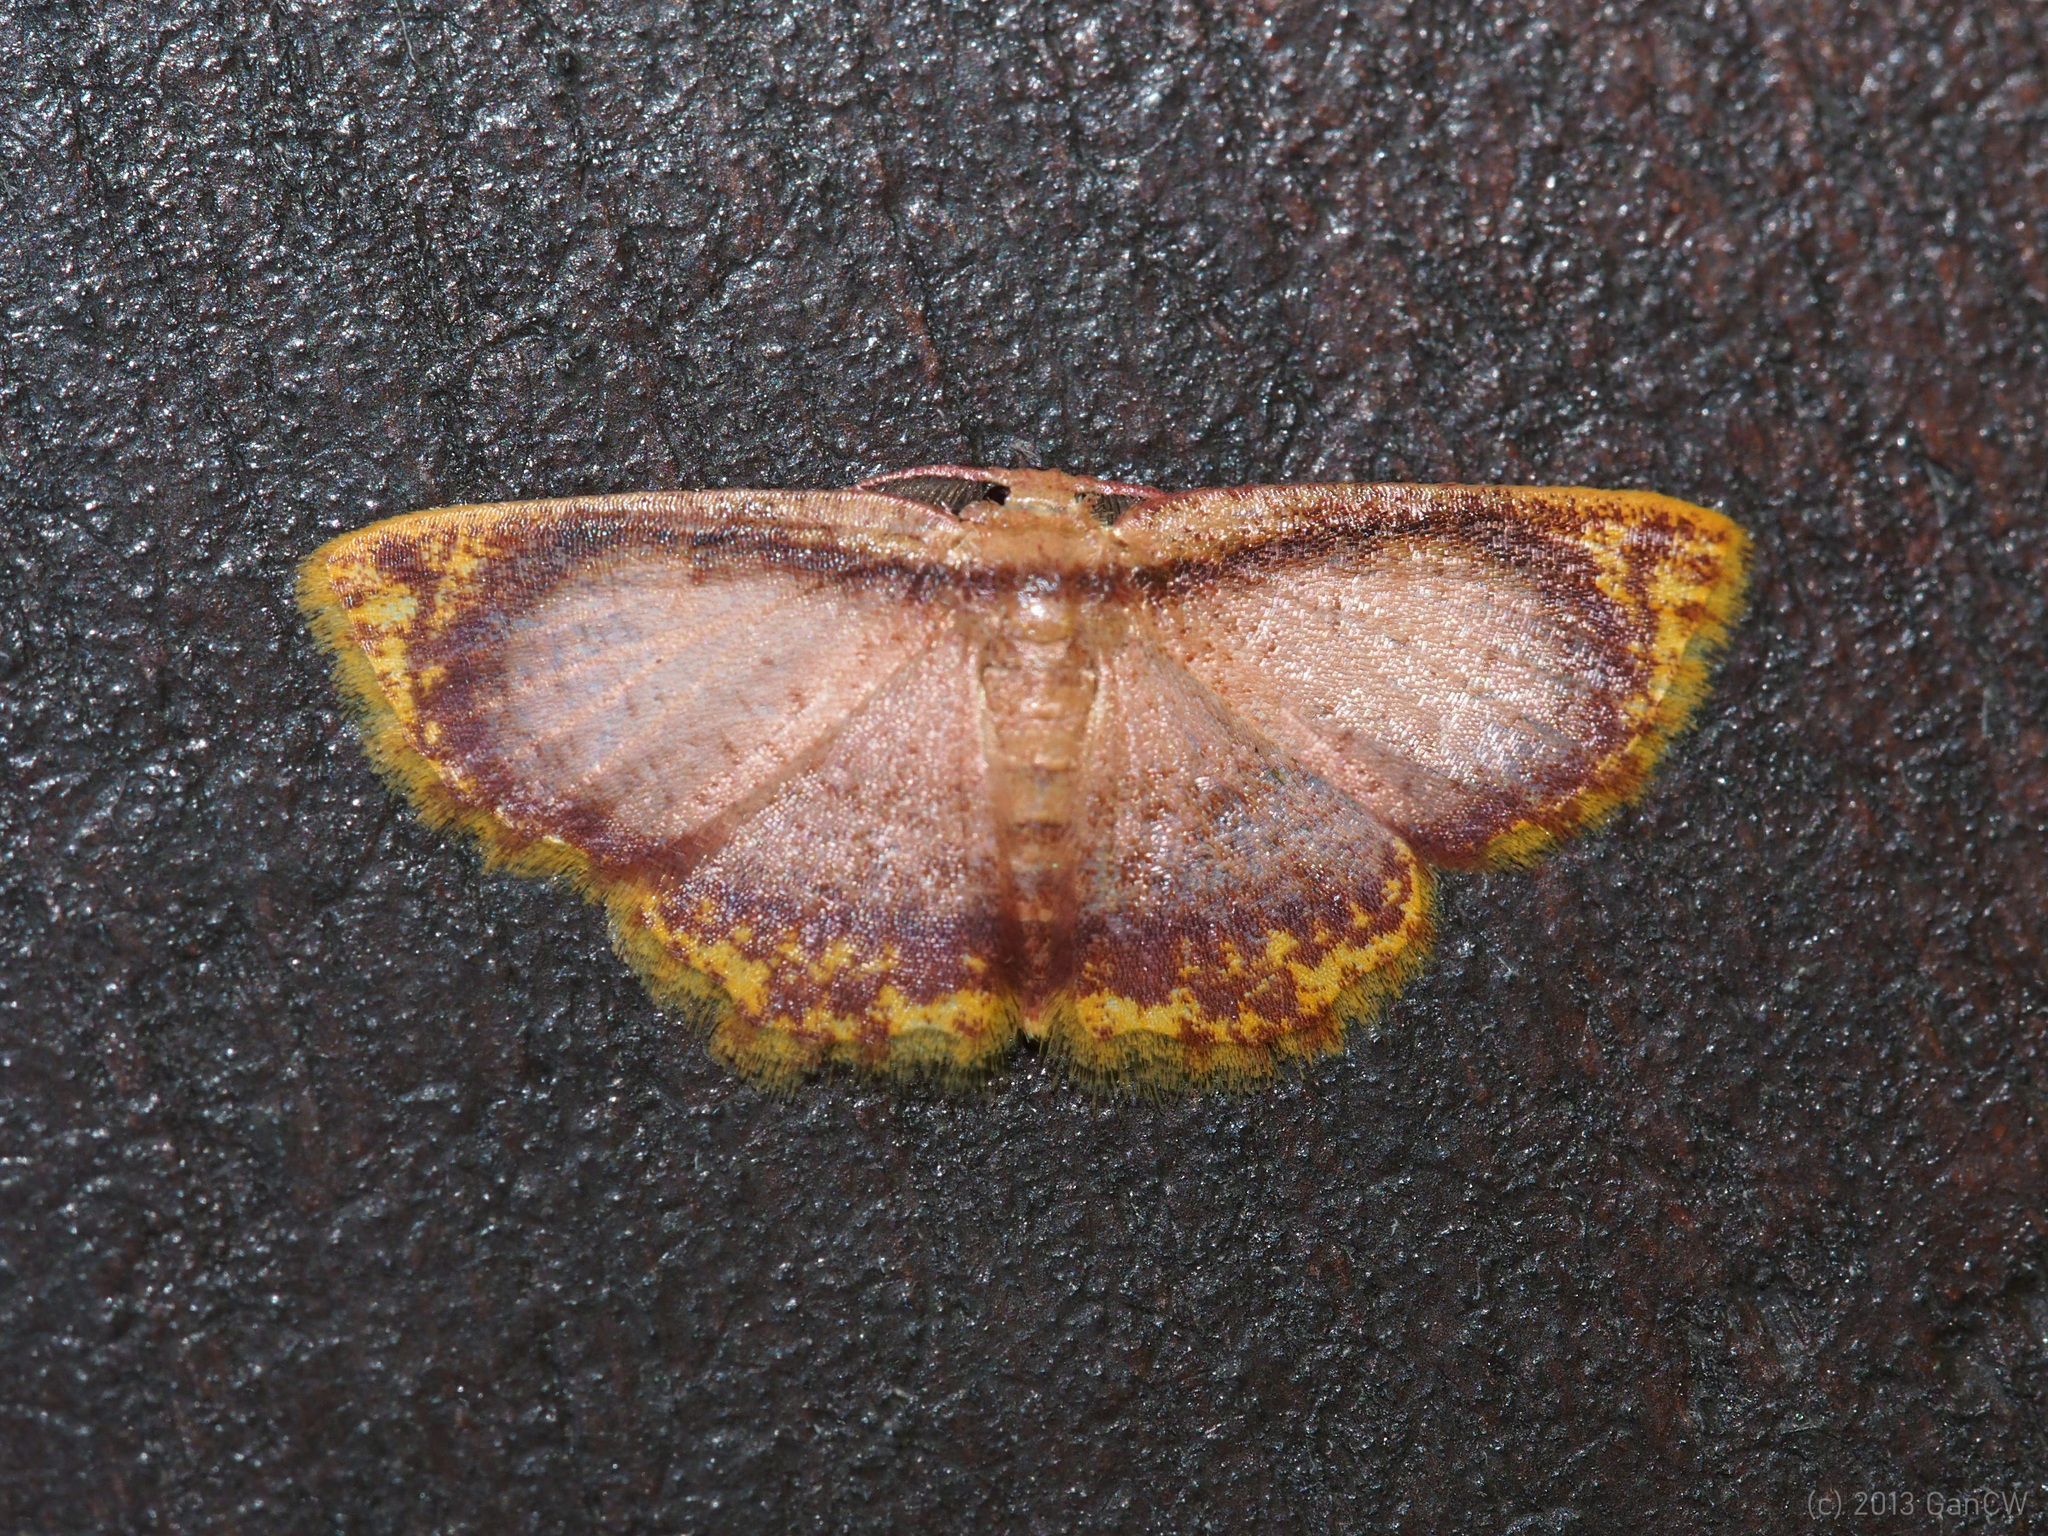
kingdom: Animalia
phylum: Arthropoda
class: Insecta
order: Lepidoptera
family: Geometridae
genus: Chrysocraspeda
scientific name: Chrysocraspeda comptaria
